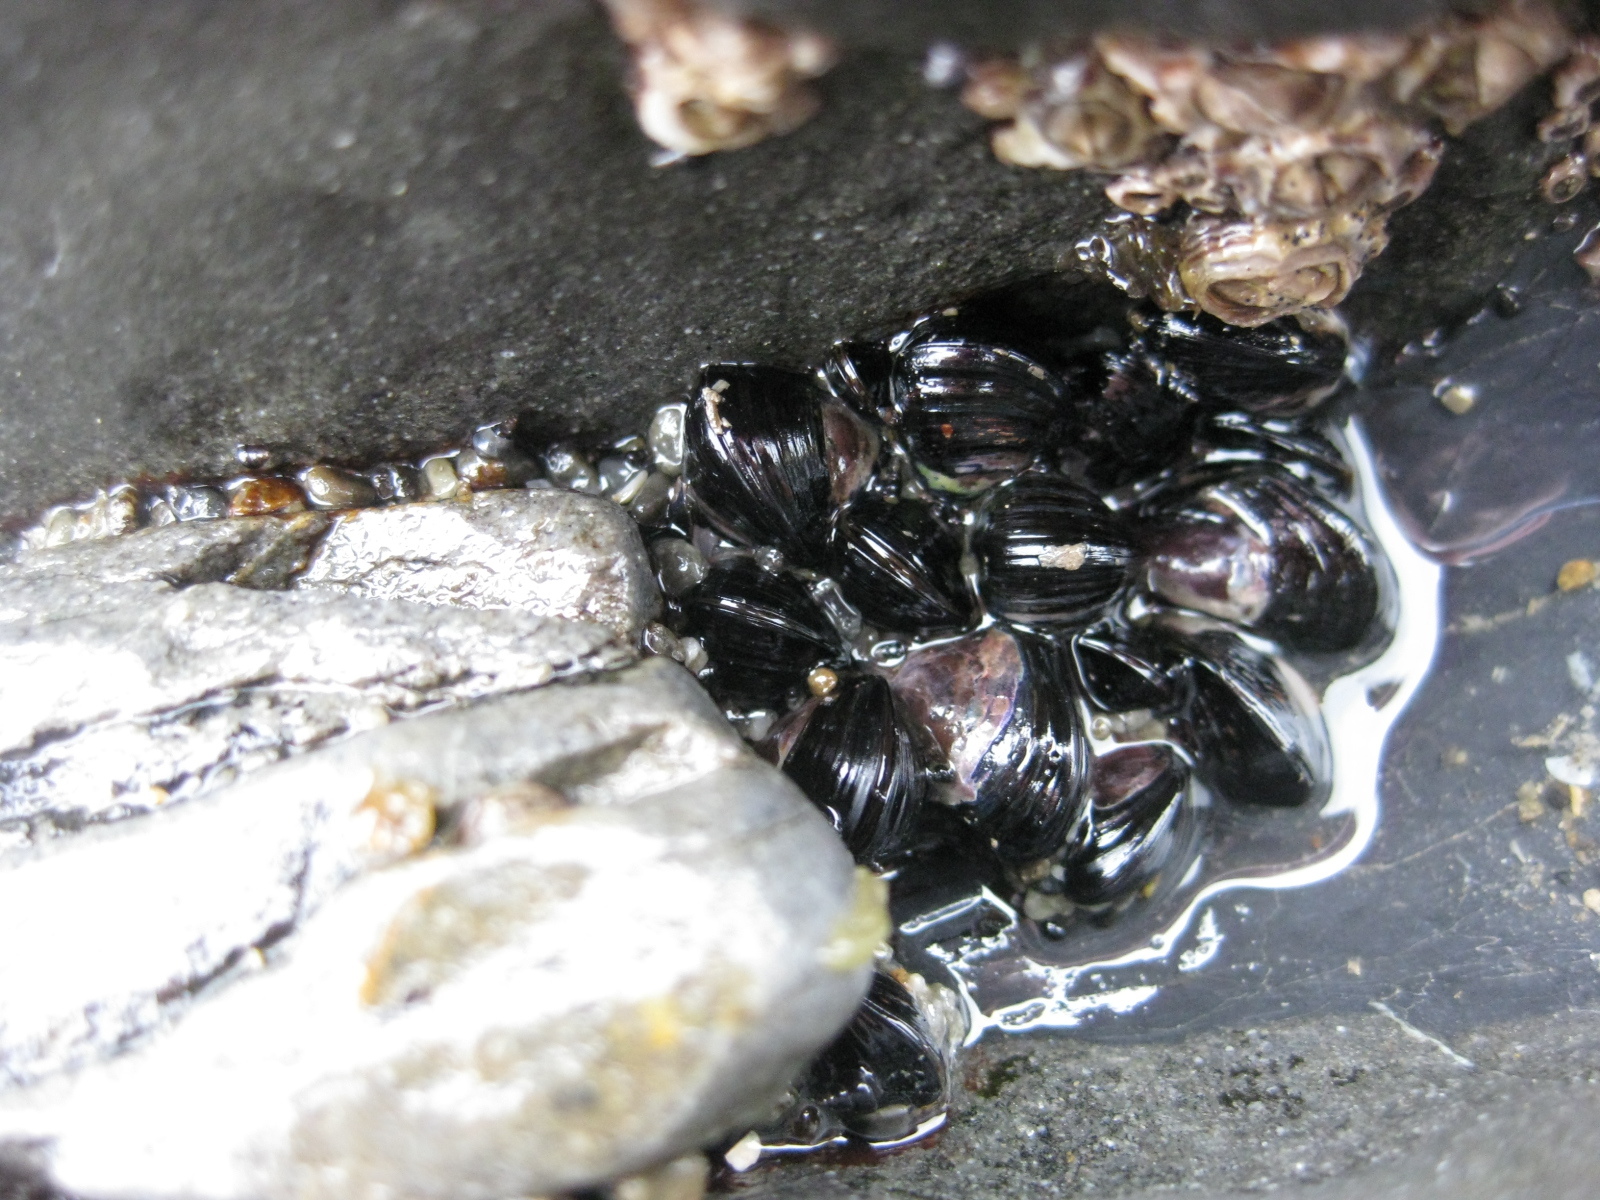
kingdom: Animalia
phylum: Mollusca
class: Bivalvia
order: Mytilida
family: Mytilidae
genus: Xenostrobus
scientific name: Xenostrobus neozelanicus
